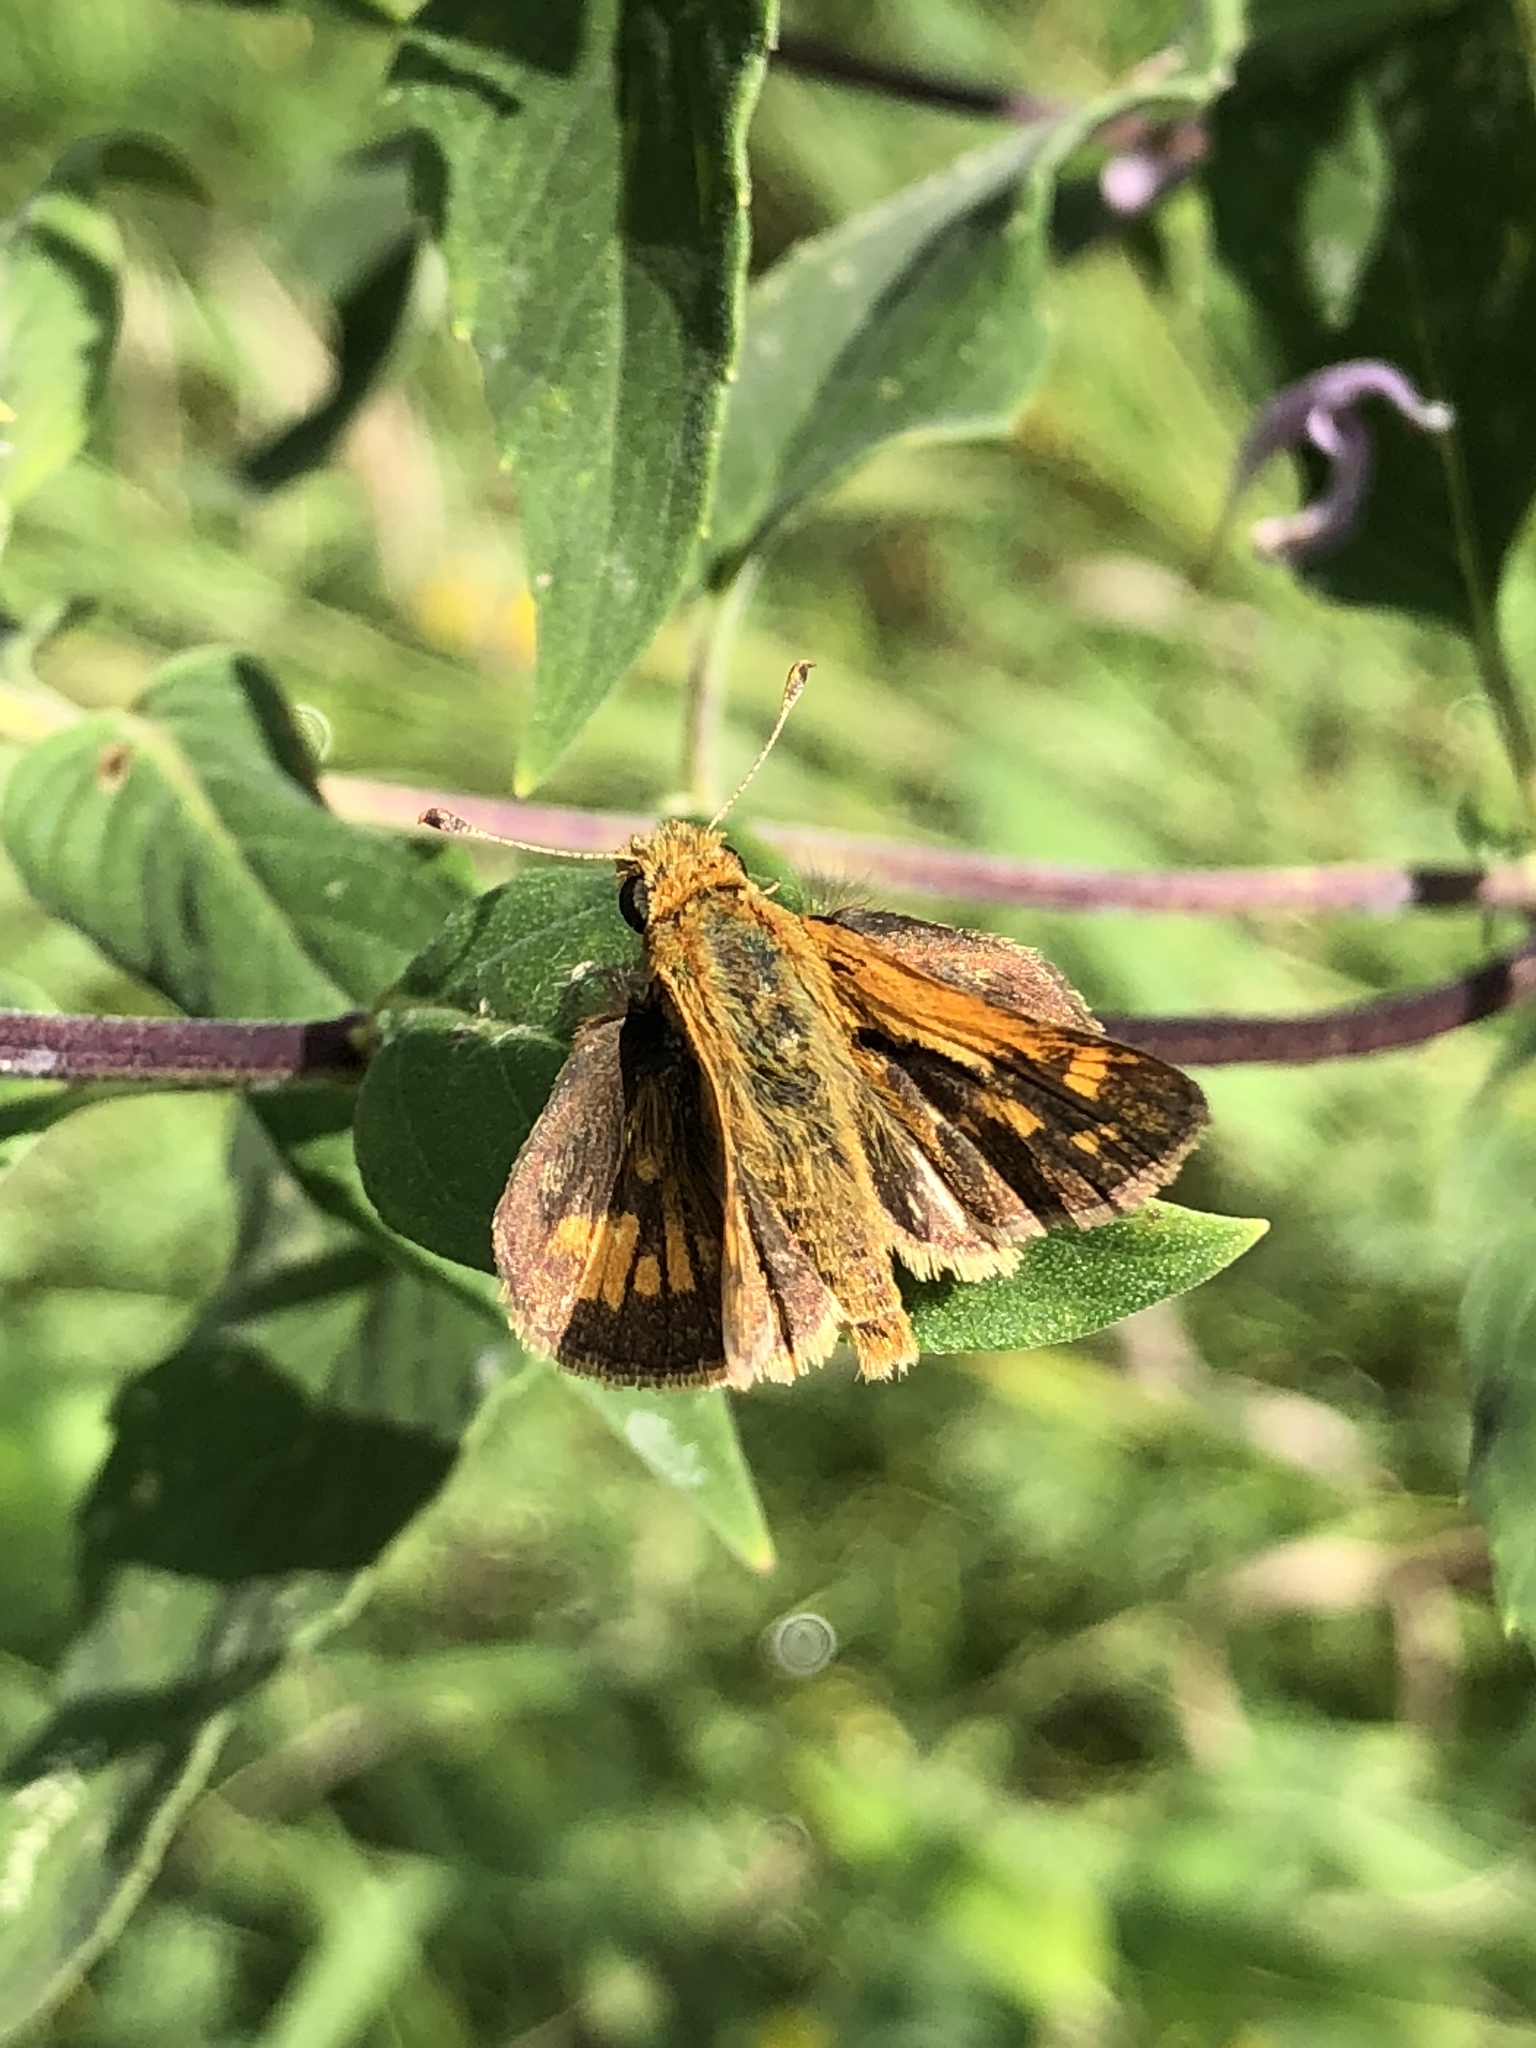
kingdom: Animalia
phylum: Arthropoda
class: Insecta
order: Lepidoptera
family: Hesperiidae
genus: Polites
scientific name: Polites coras
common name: Peck's skipper
